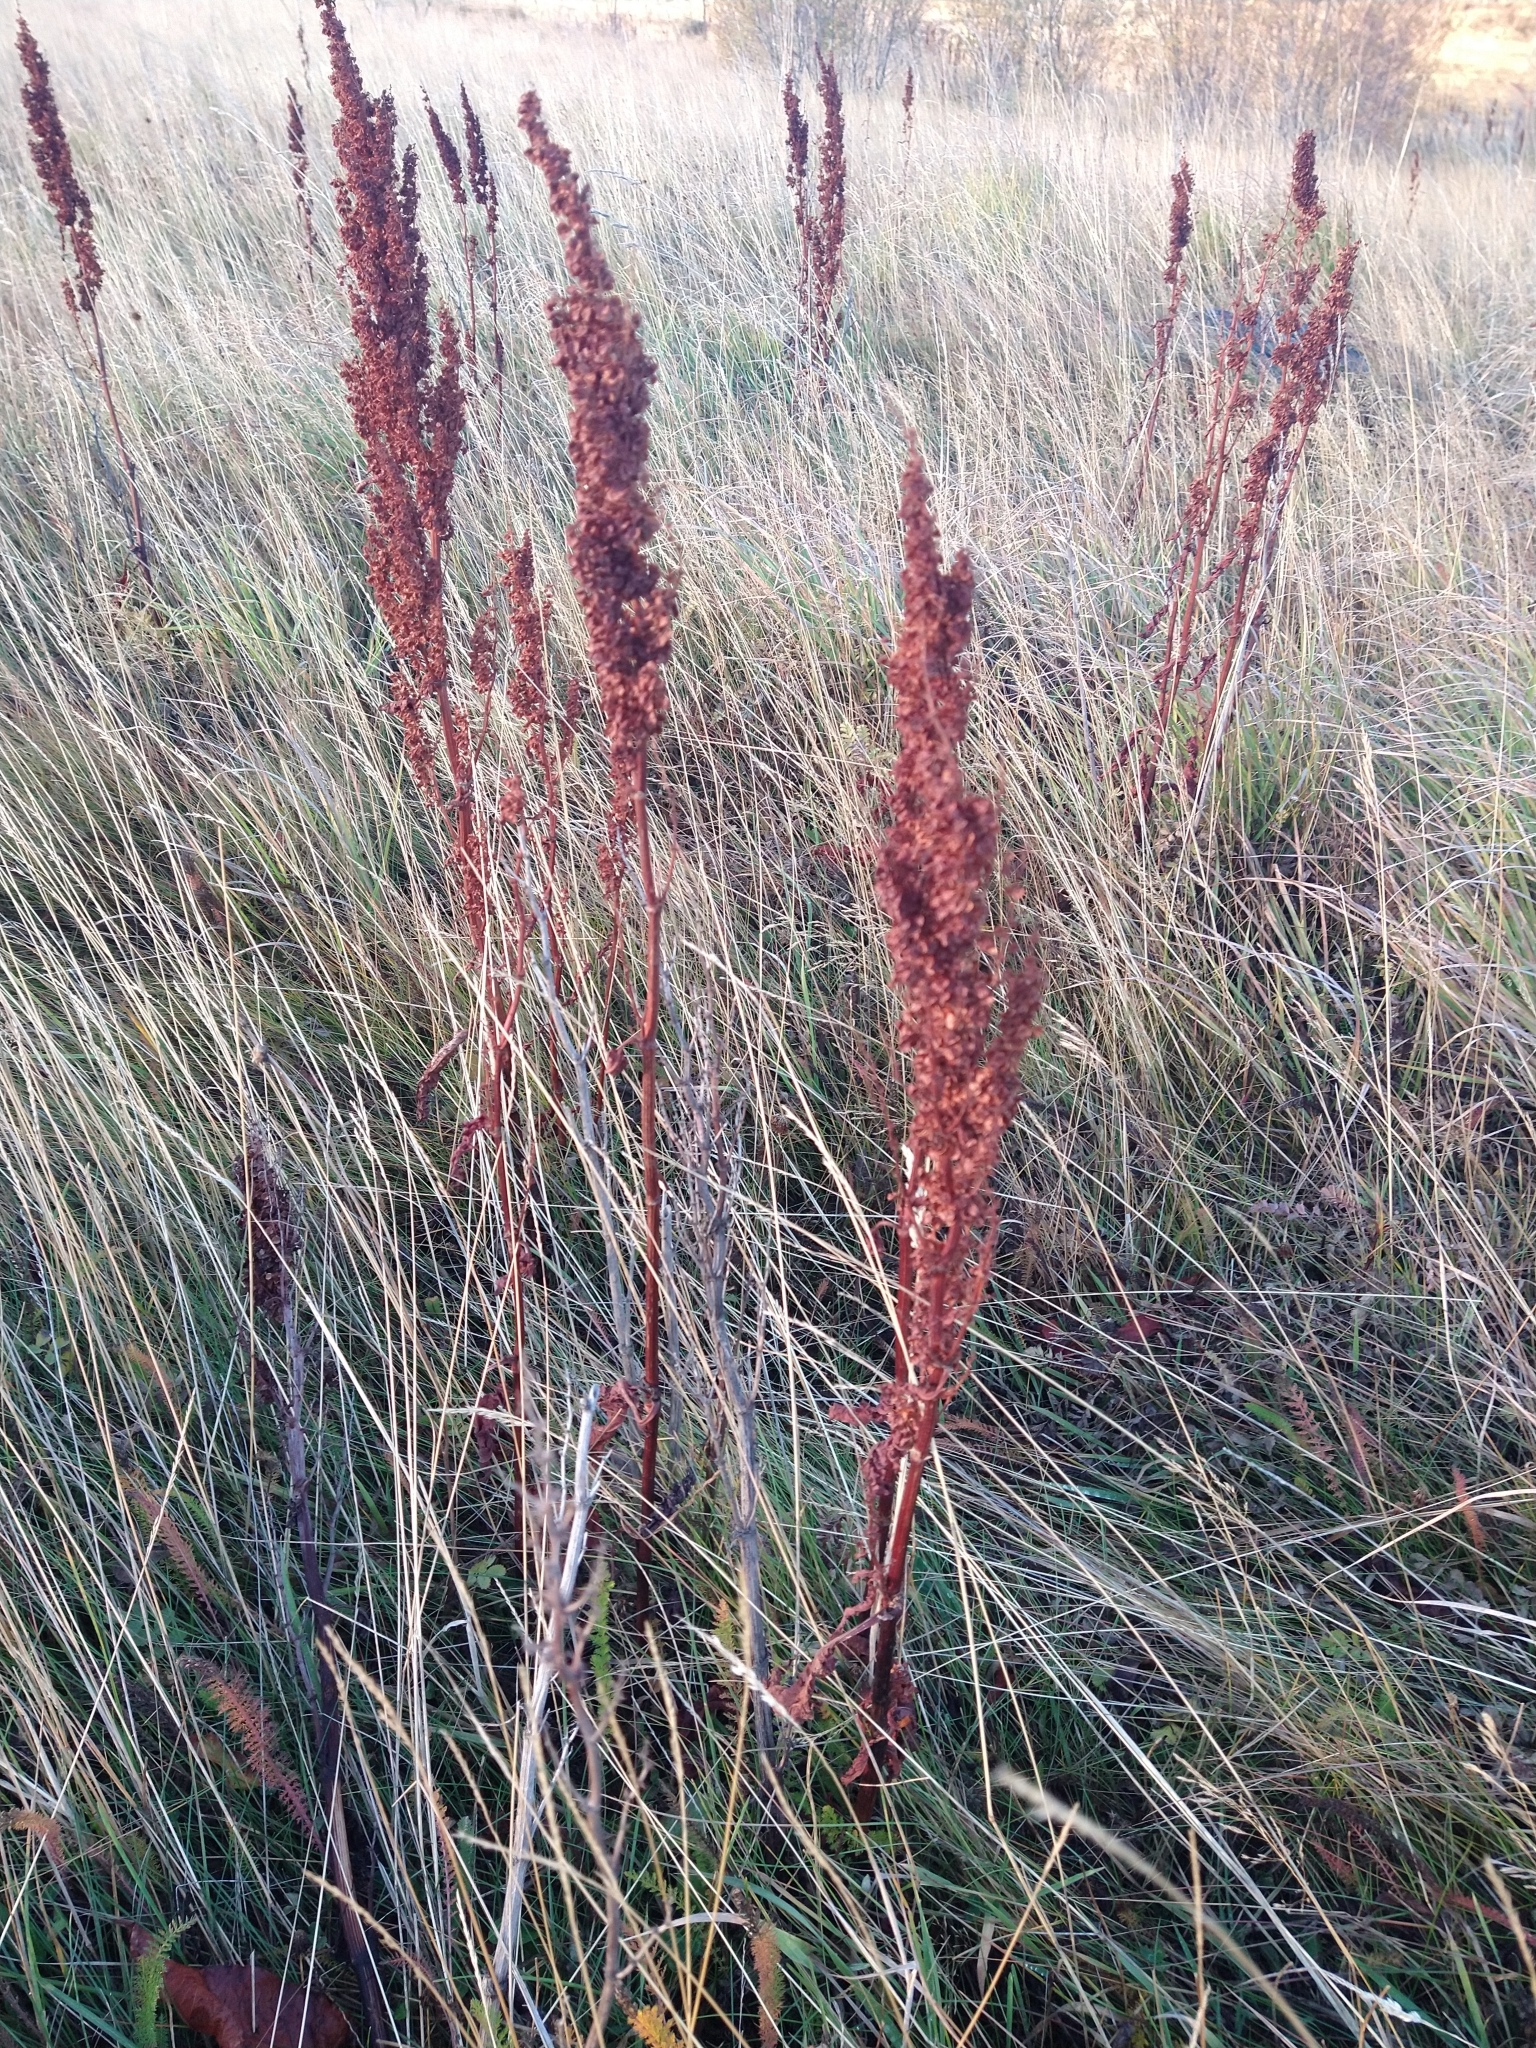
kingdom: Plantae
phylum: Tracheophyta
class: Magnoliopsida
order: Caryophyllales
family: Polygonaceae
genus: Rumex
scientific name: Rumex crispus
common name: Curled dock
